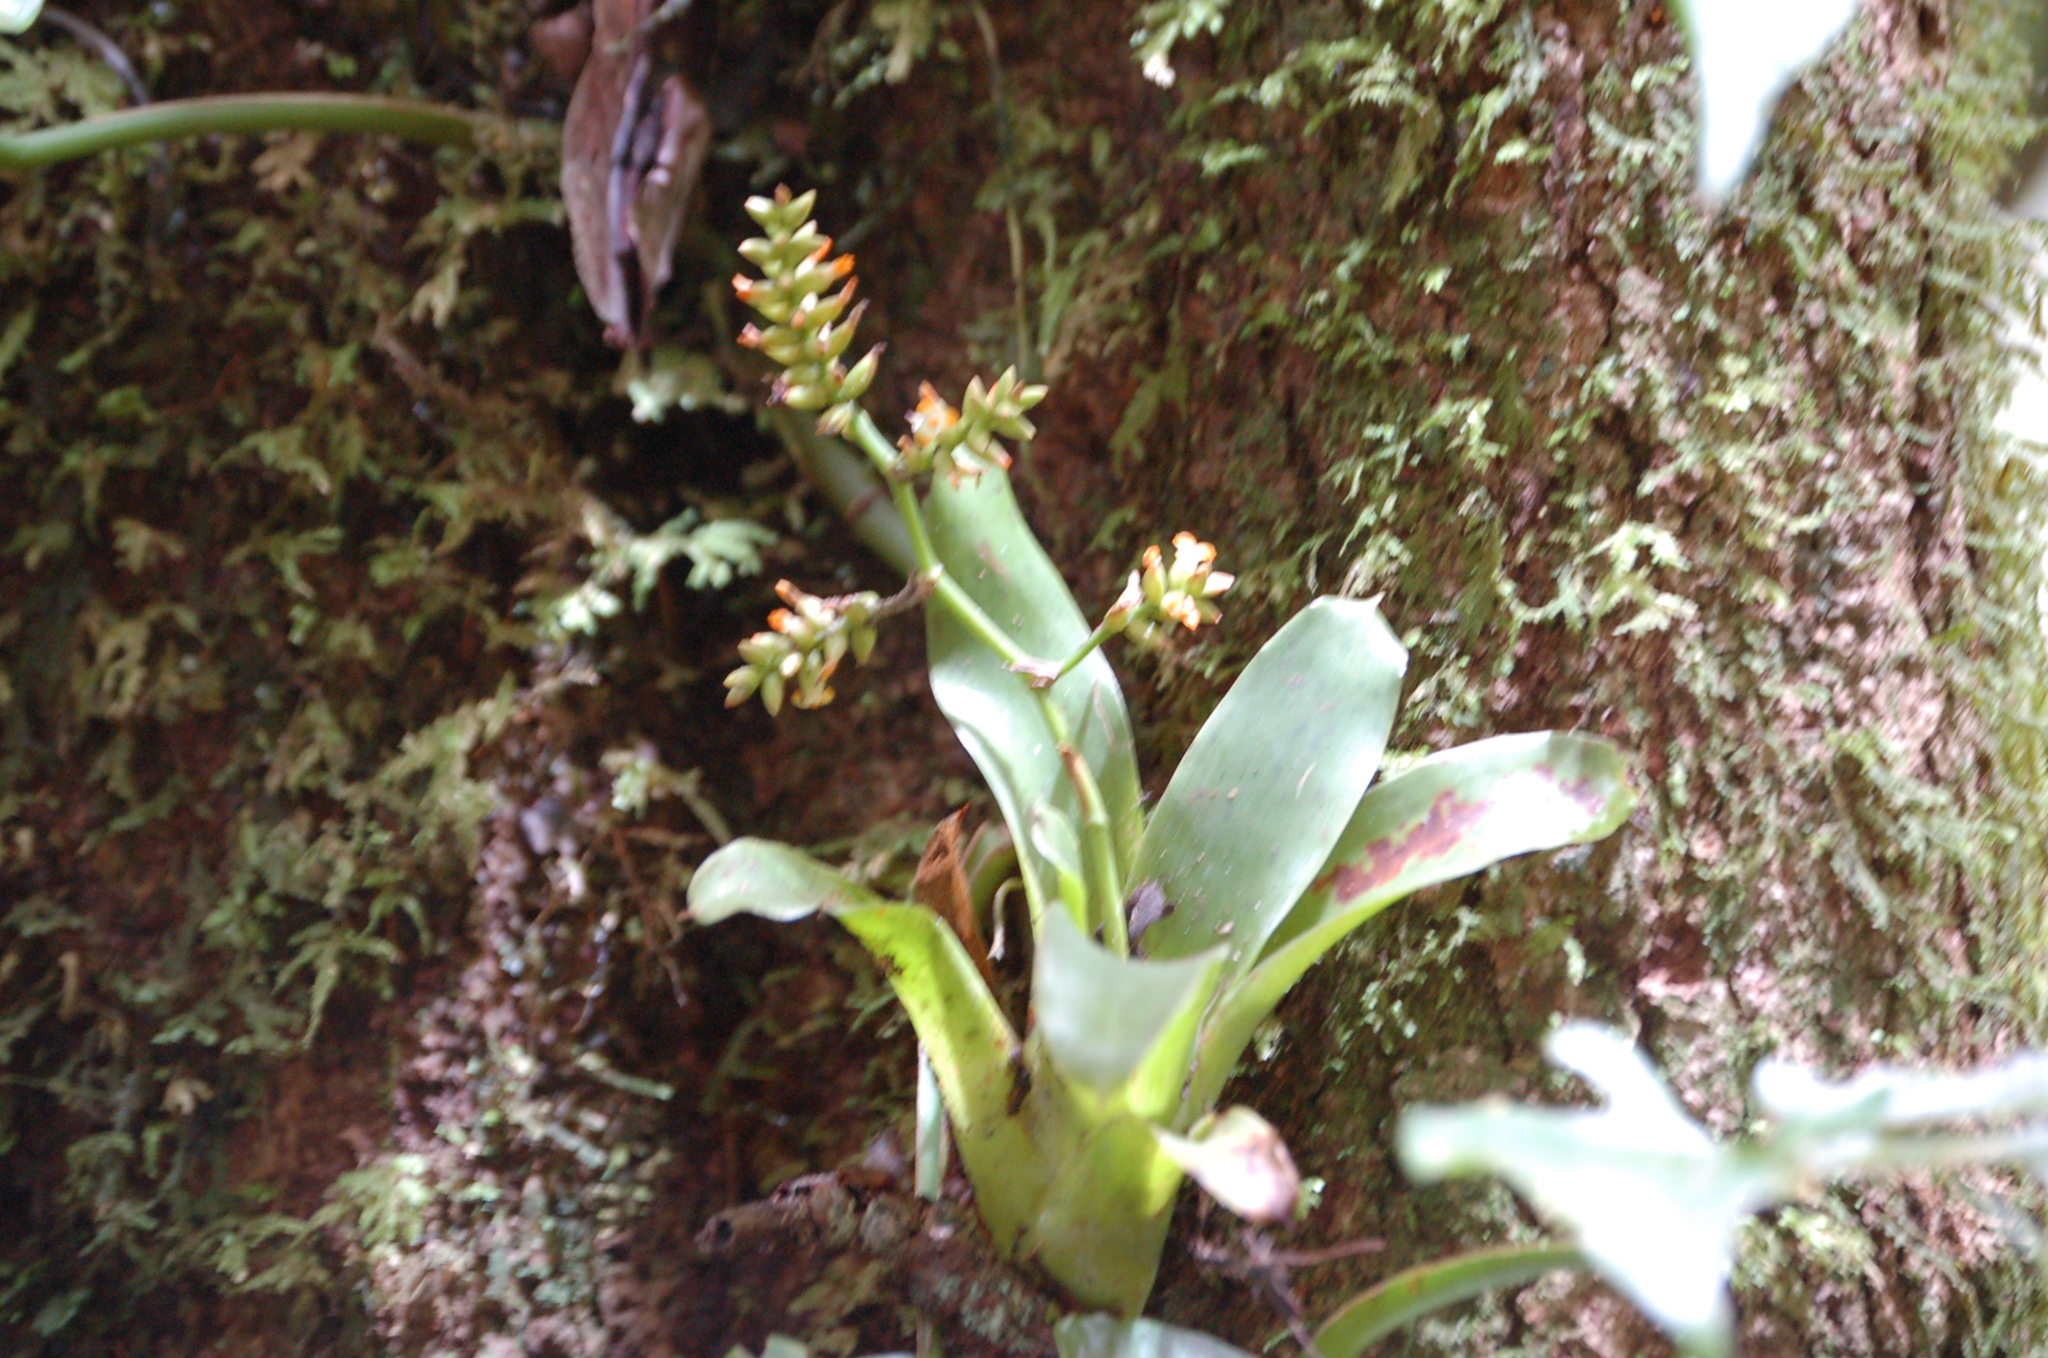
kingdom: Plantae
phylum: Tracheophyta
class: Liliopsida
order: Poales
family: Bromeliaceae
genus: Catopsis
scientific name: Catopsis sessiliflora
